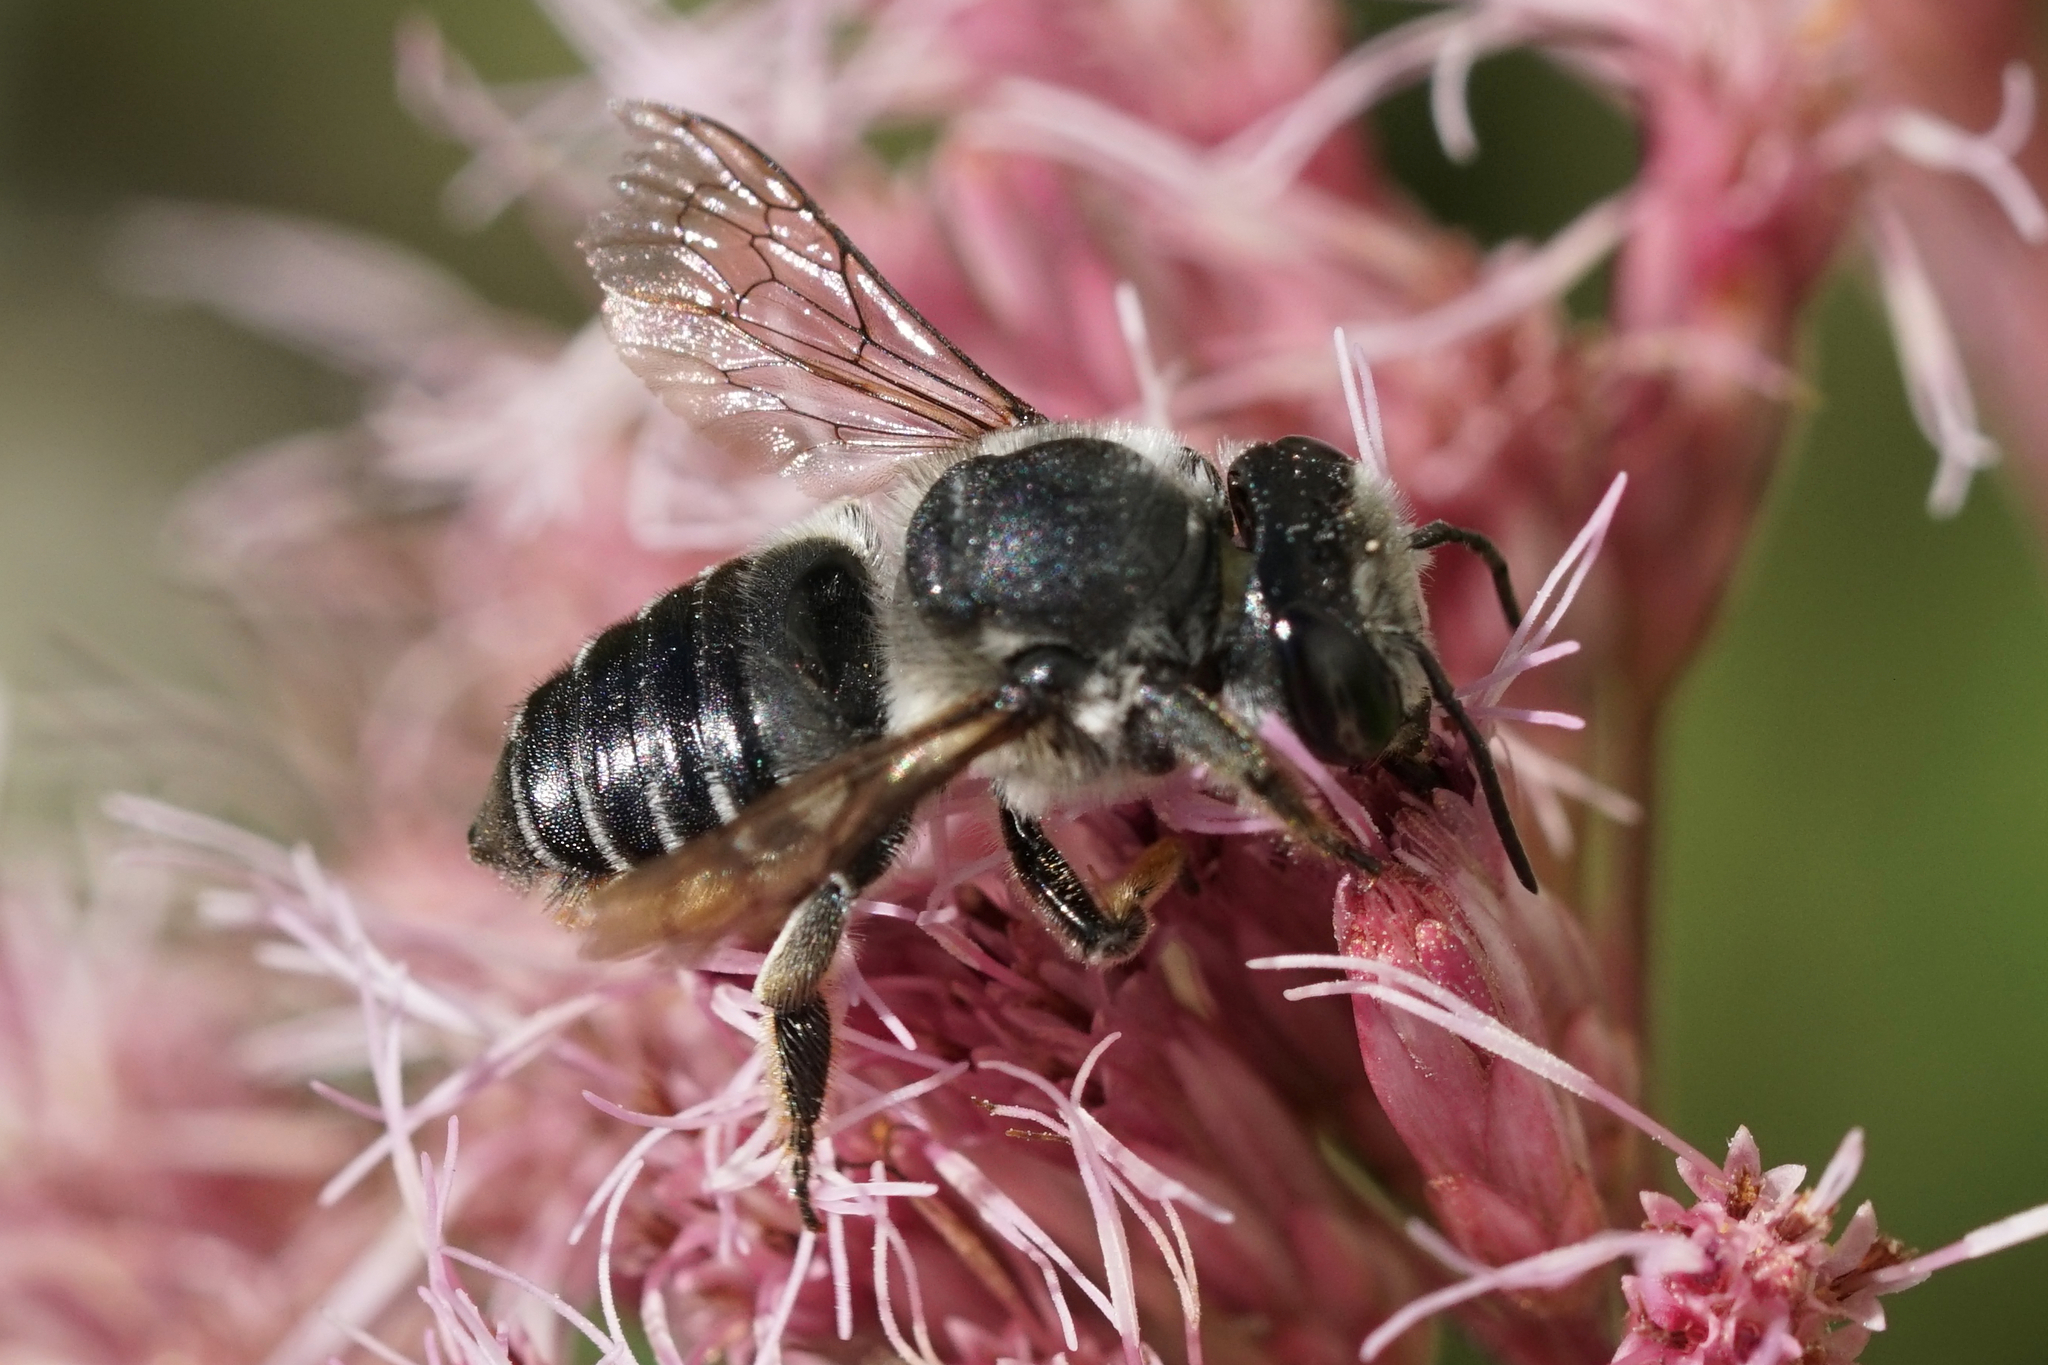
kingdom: Animalia
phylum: Arthropoda
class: Insecta
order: Hymenoptera
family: Megachilidae
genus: Megachile
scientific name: Megachile mendica
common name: Flat-tailed leafcutter
